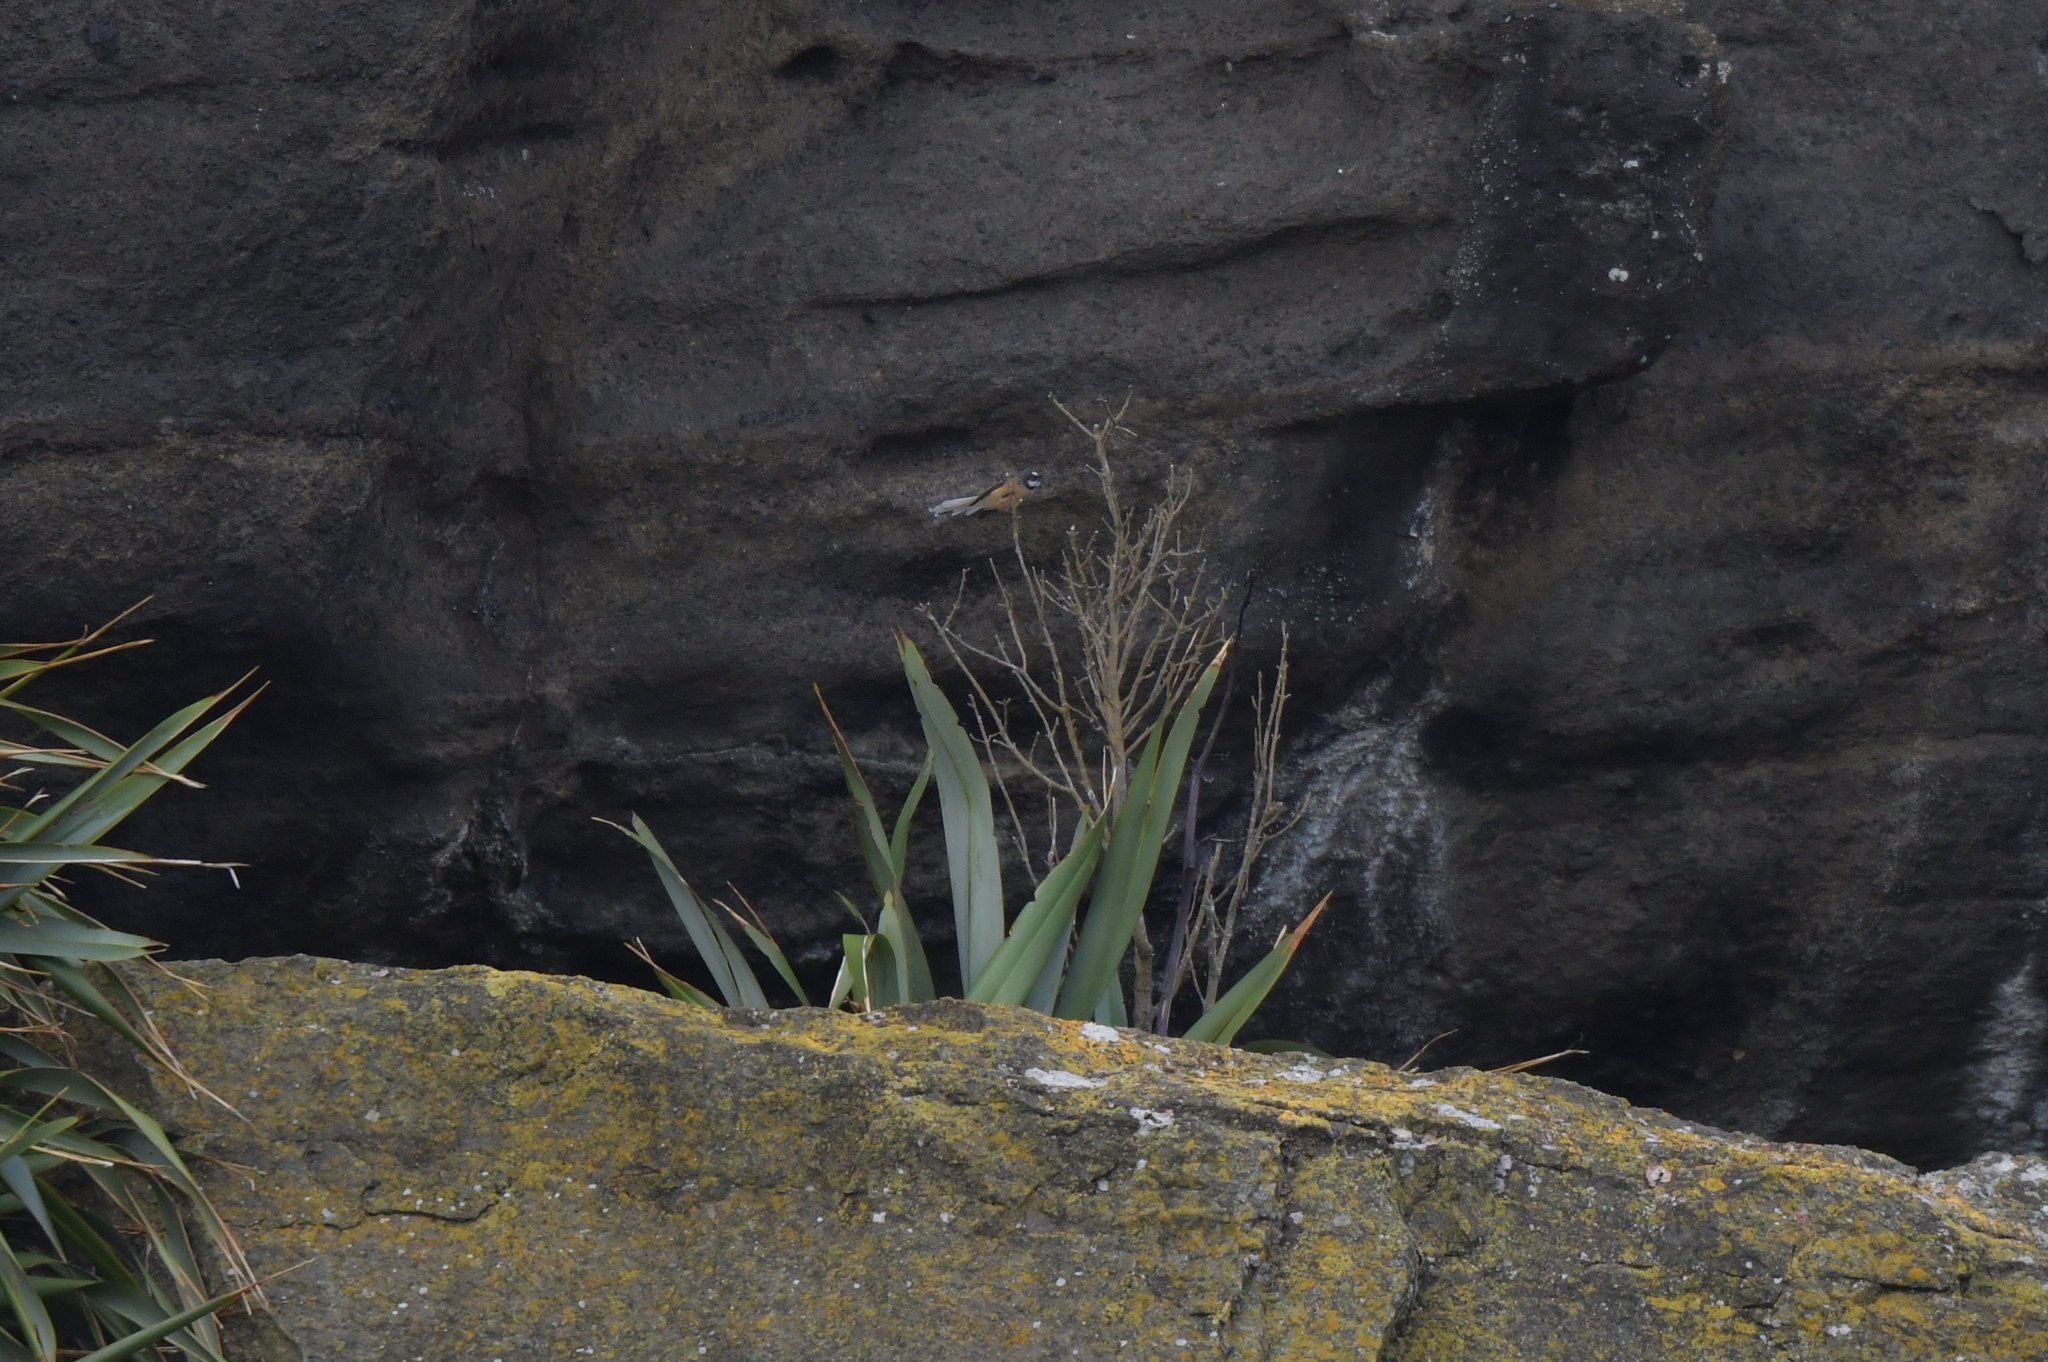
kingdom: Animalia
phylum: Chordata
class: Aves
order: Passeriformes
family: Rhipiduridae
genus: Rhipidura
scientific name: Rhipidura fuliginosa
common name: New zealand fantail
